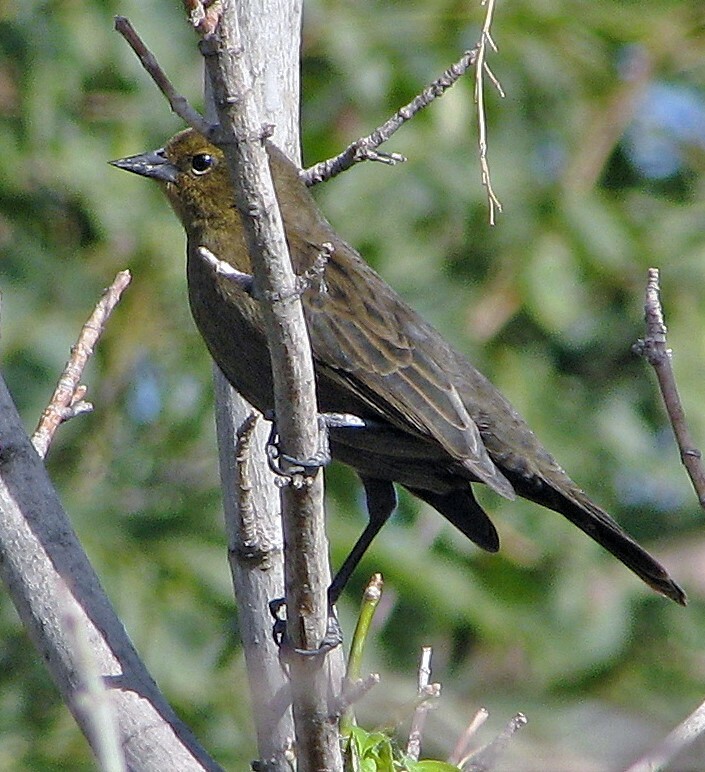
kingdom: Animalia
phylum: Chordata
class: Aves
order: Passeriformes
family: Icteridae
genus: Chrysomus
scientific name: Chrysomus ruficapillus
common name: Chestnut-capped blackbird
